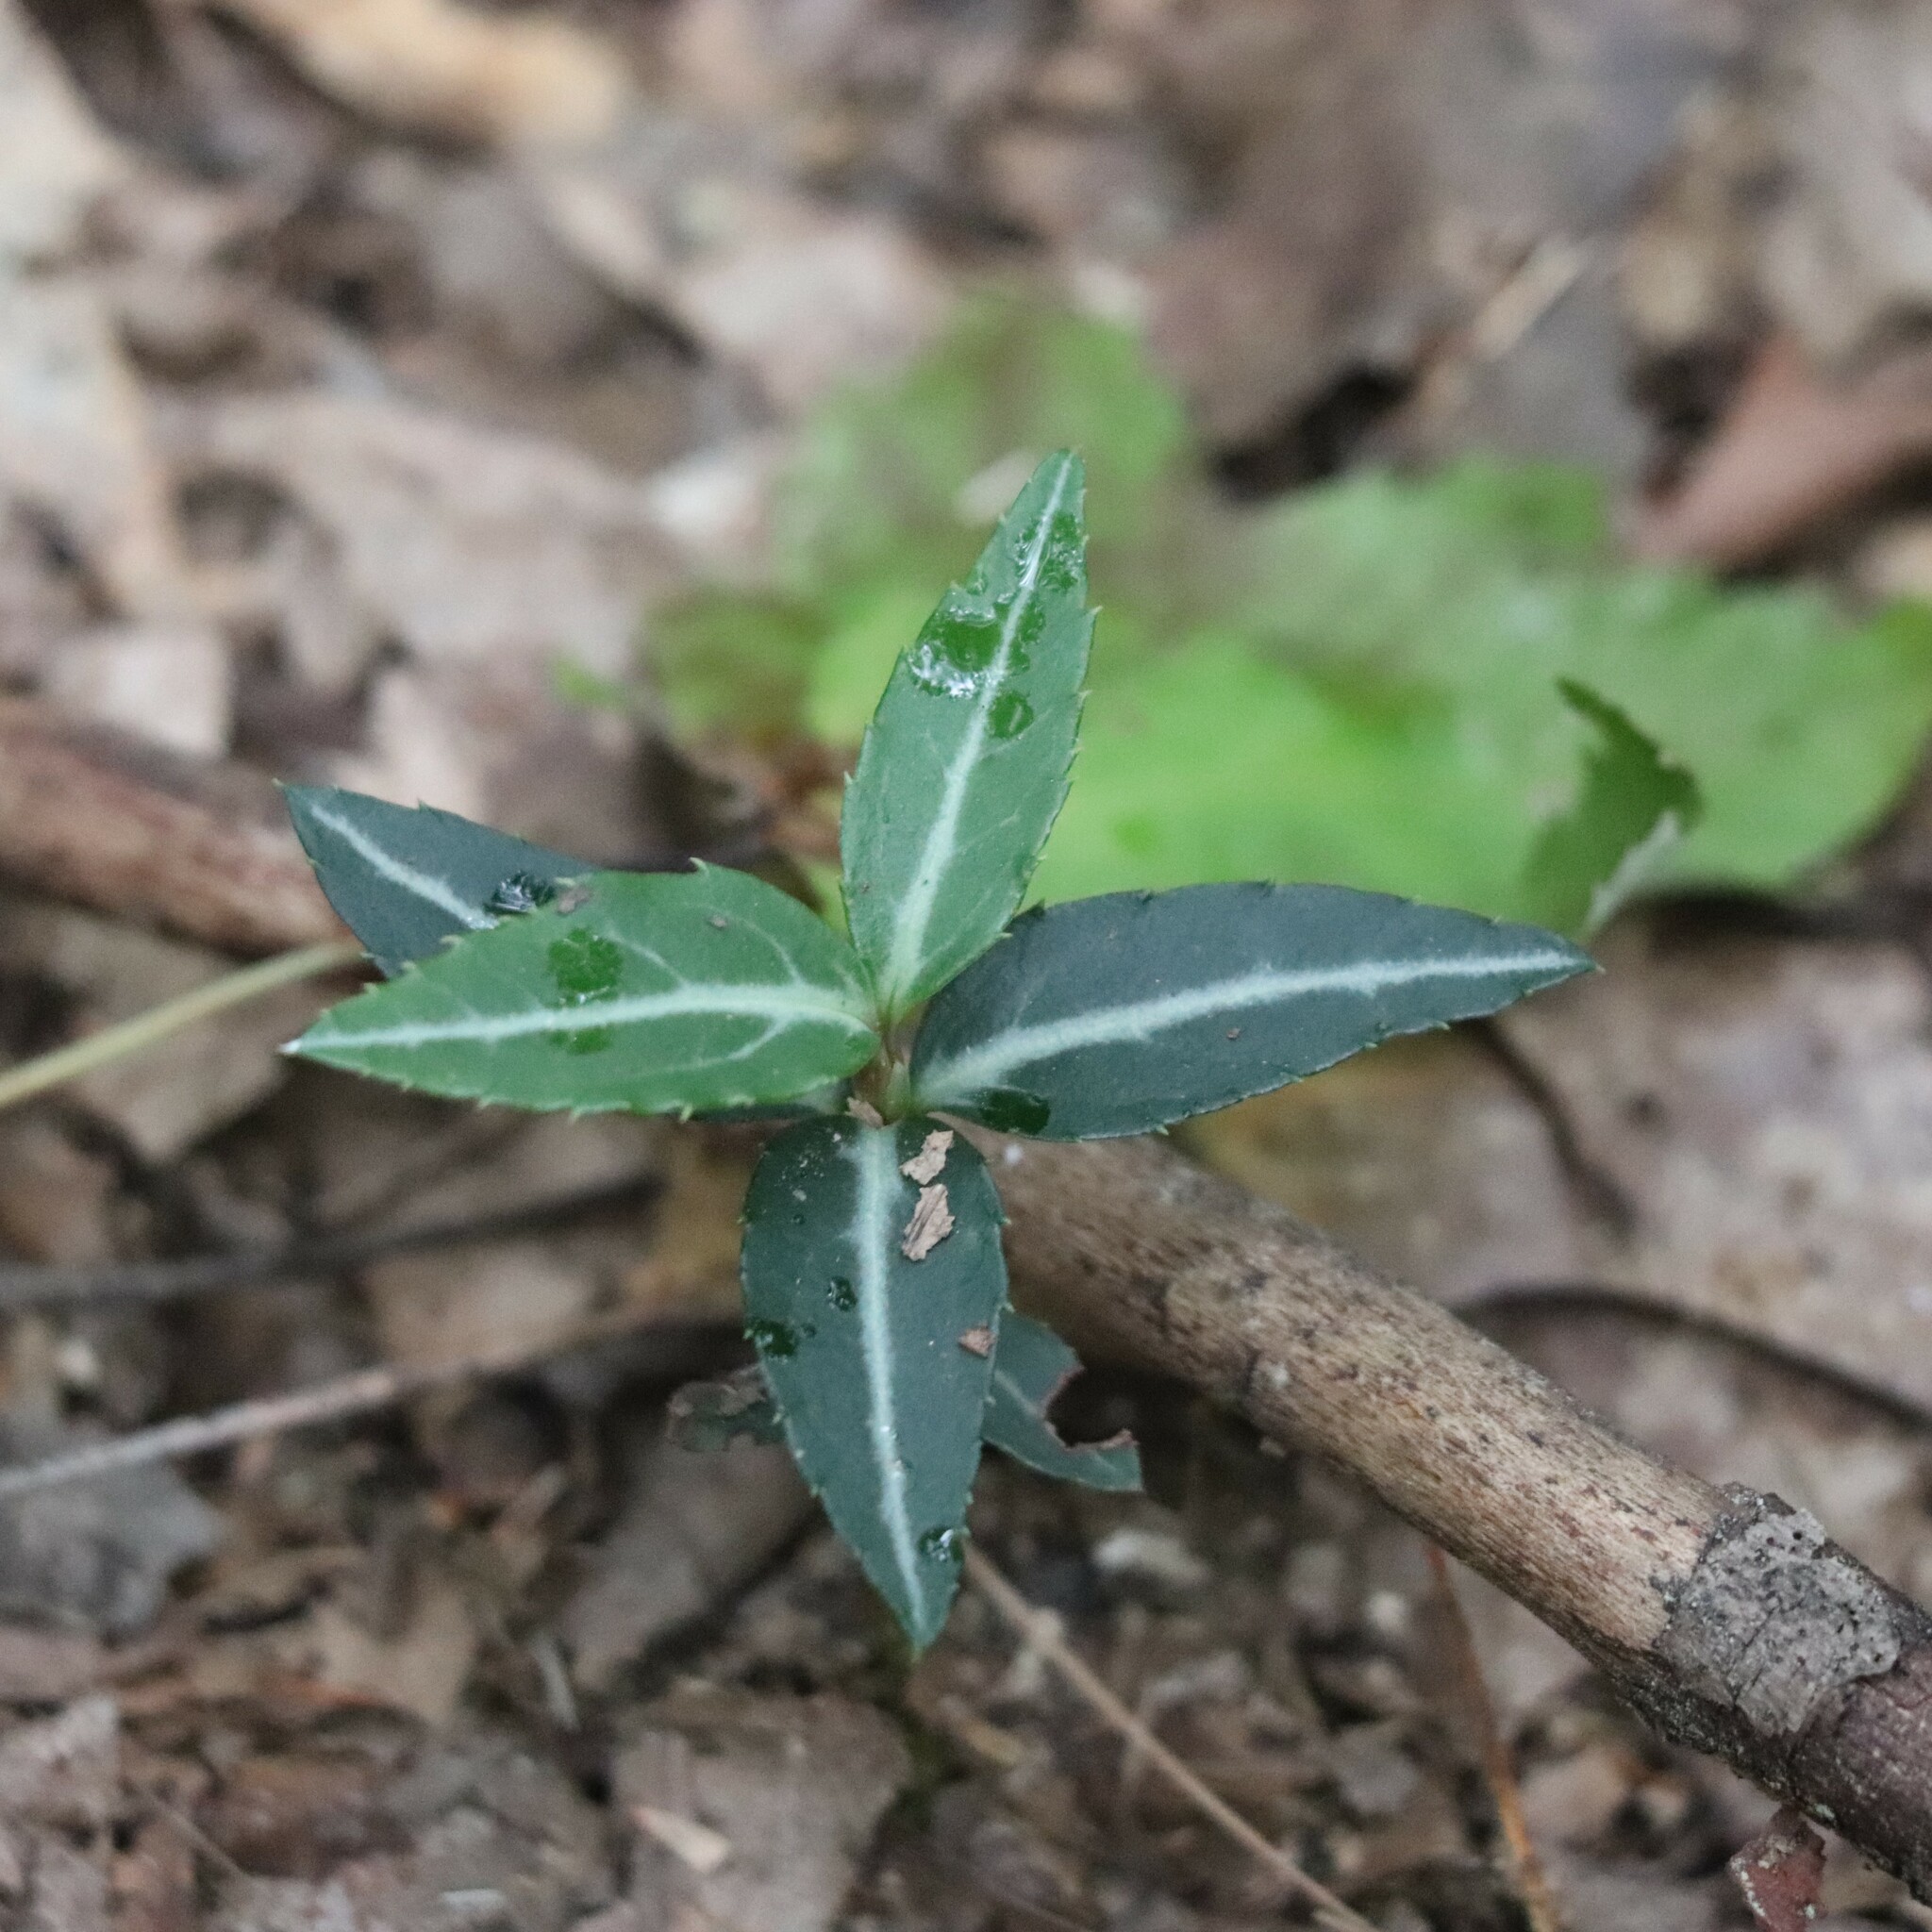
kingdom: Plantae
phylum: Tracheophyta
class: Magnoliopsida
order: Ericales
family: Ericaceae
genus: Chimaphila
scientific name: Chimaphila maculata
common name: Spotted pipsissewa
